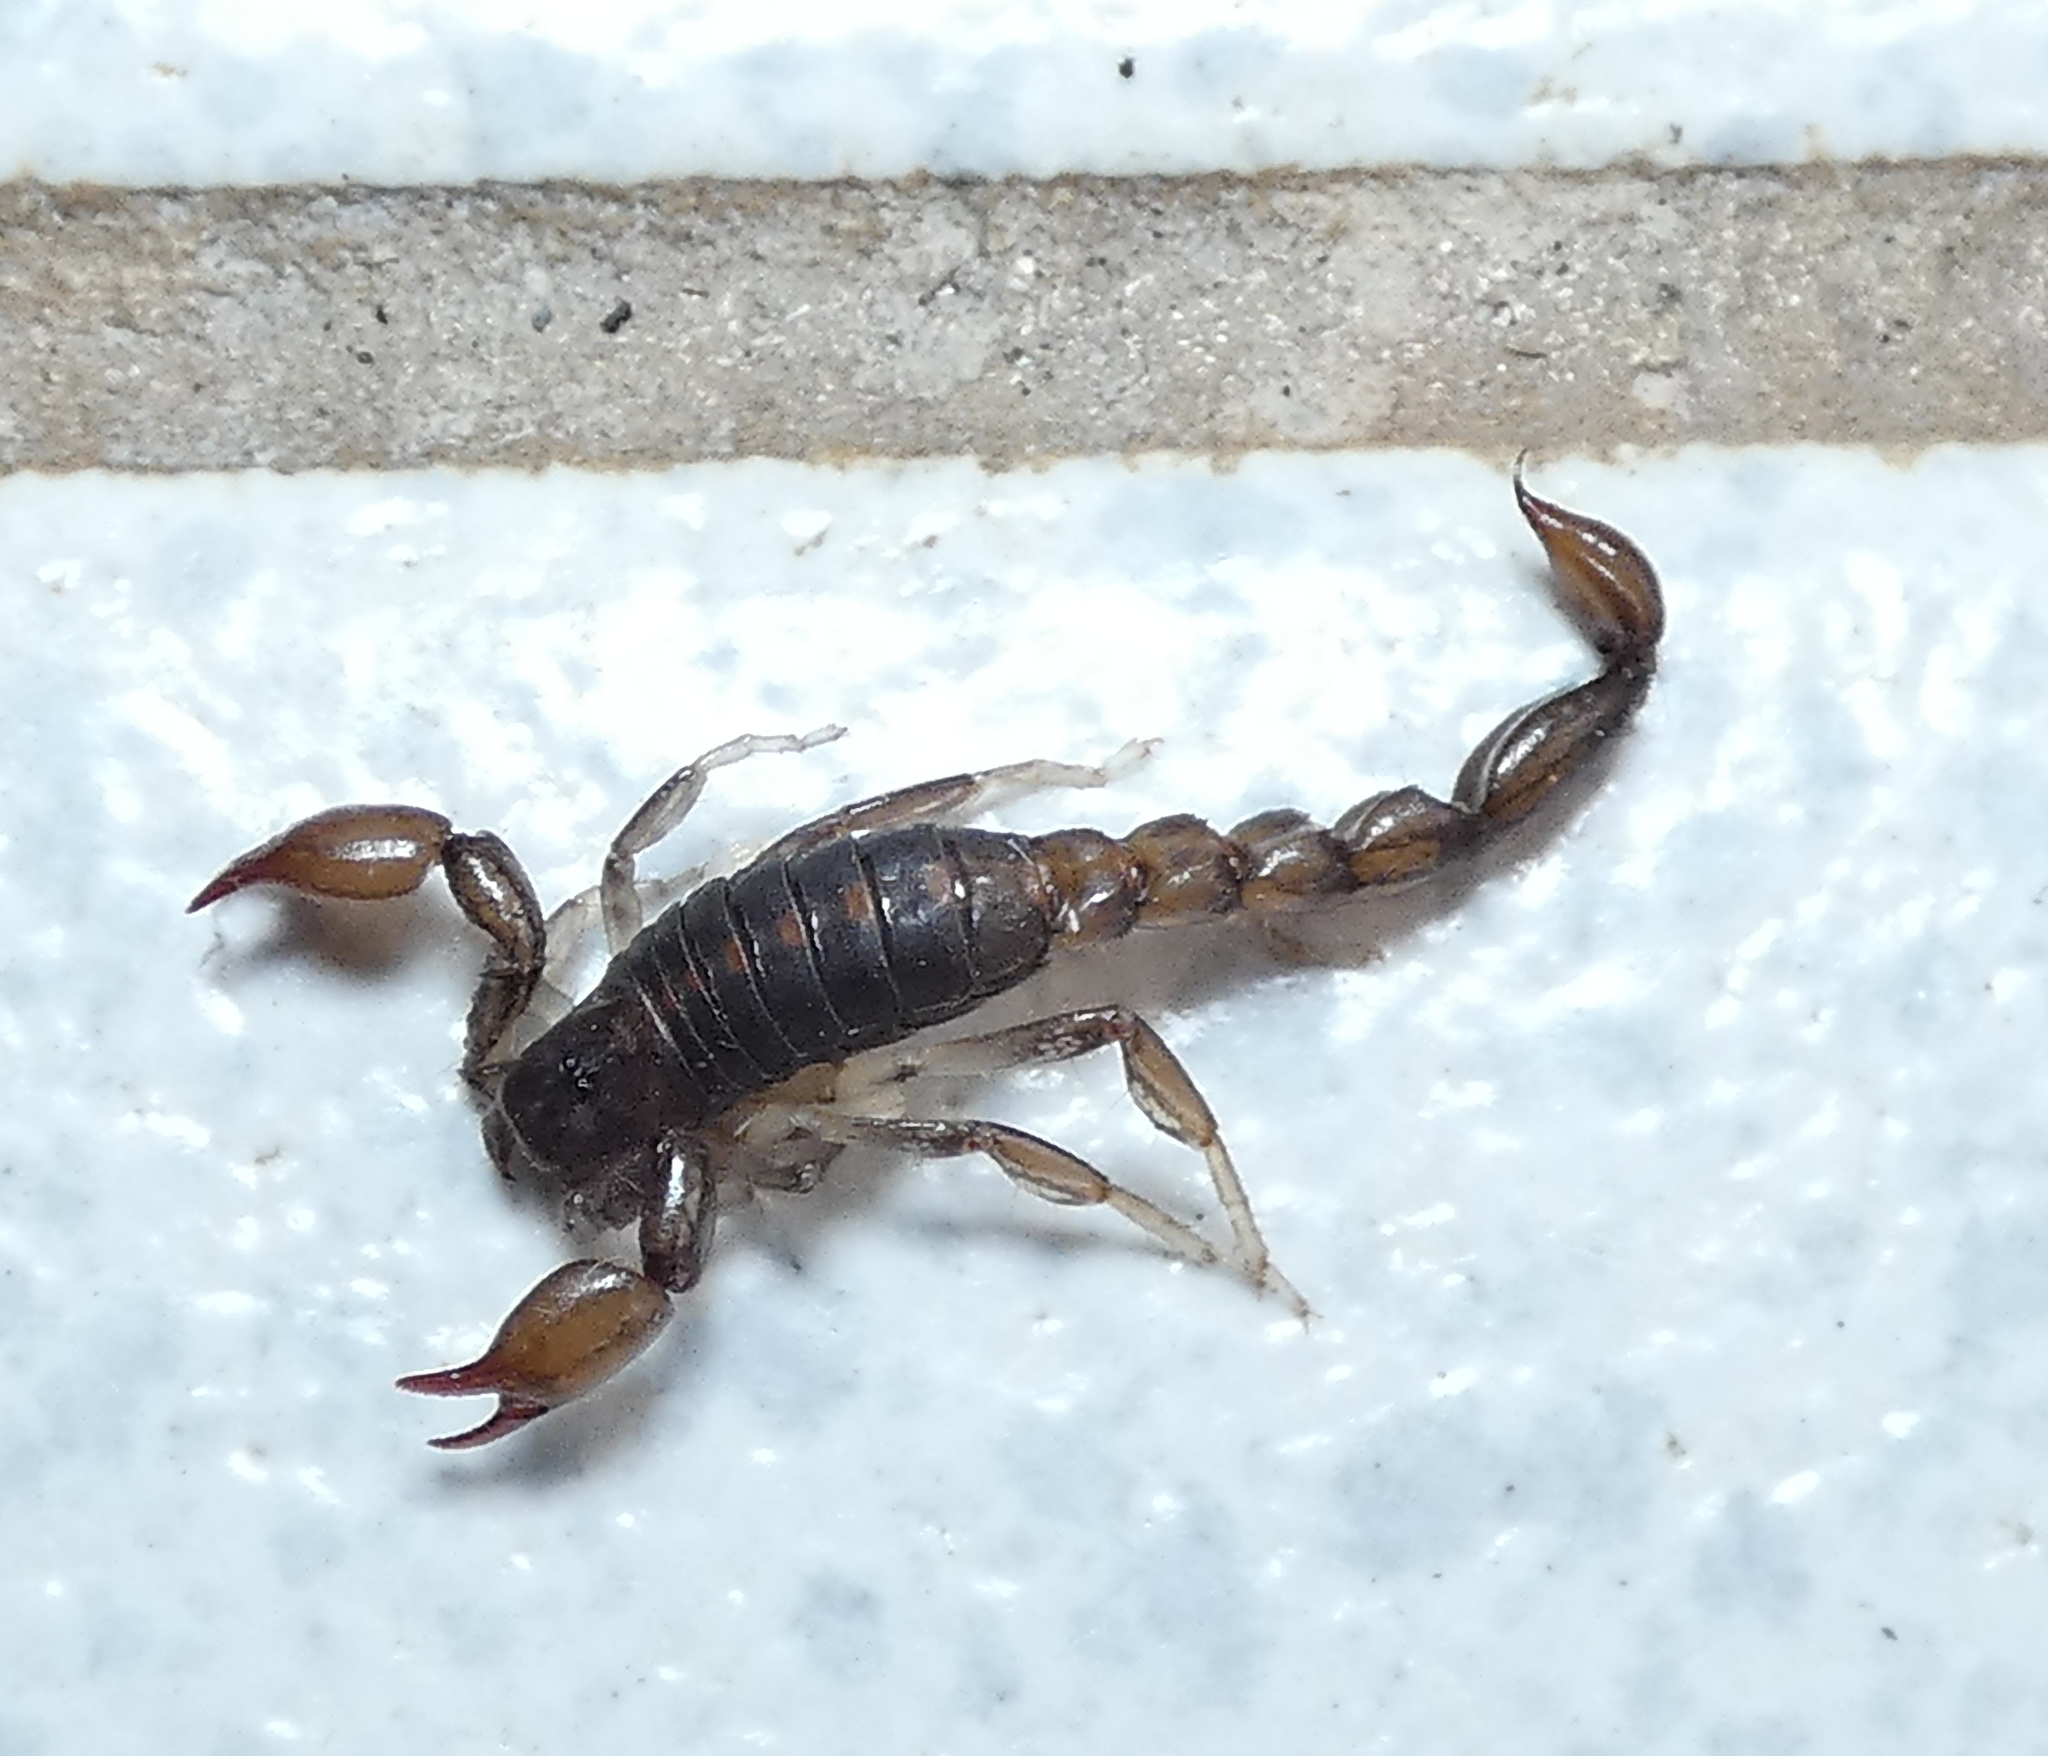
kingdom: Animalia
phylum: Arthropoda
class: Arachnida
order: Scorpiones
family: Bothriuridae
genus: Bothriurus
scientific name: Bothriurus asper
